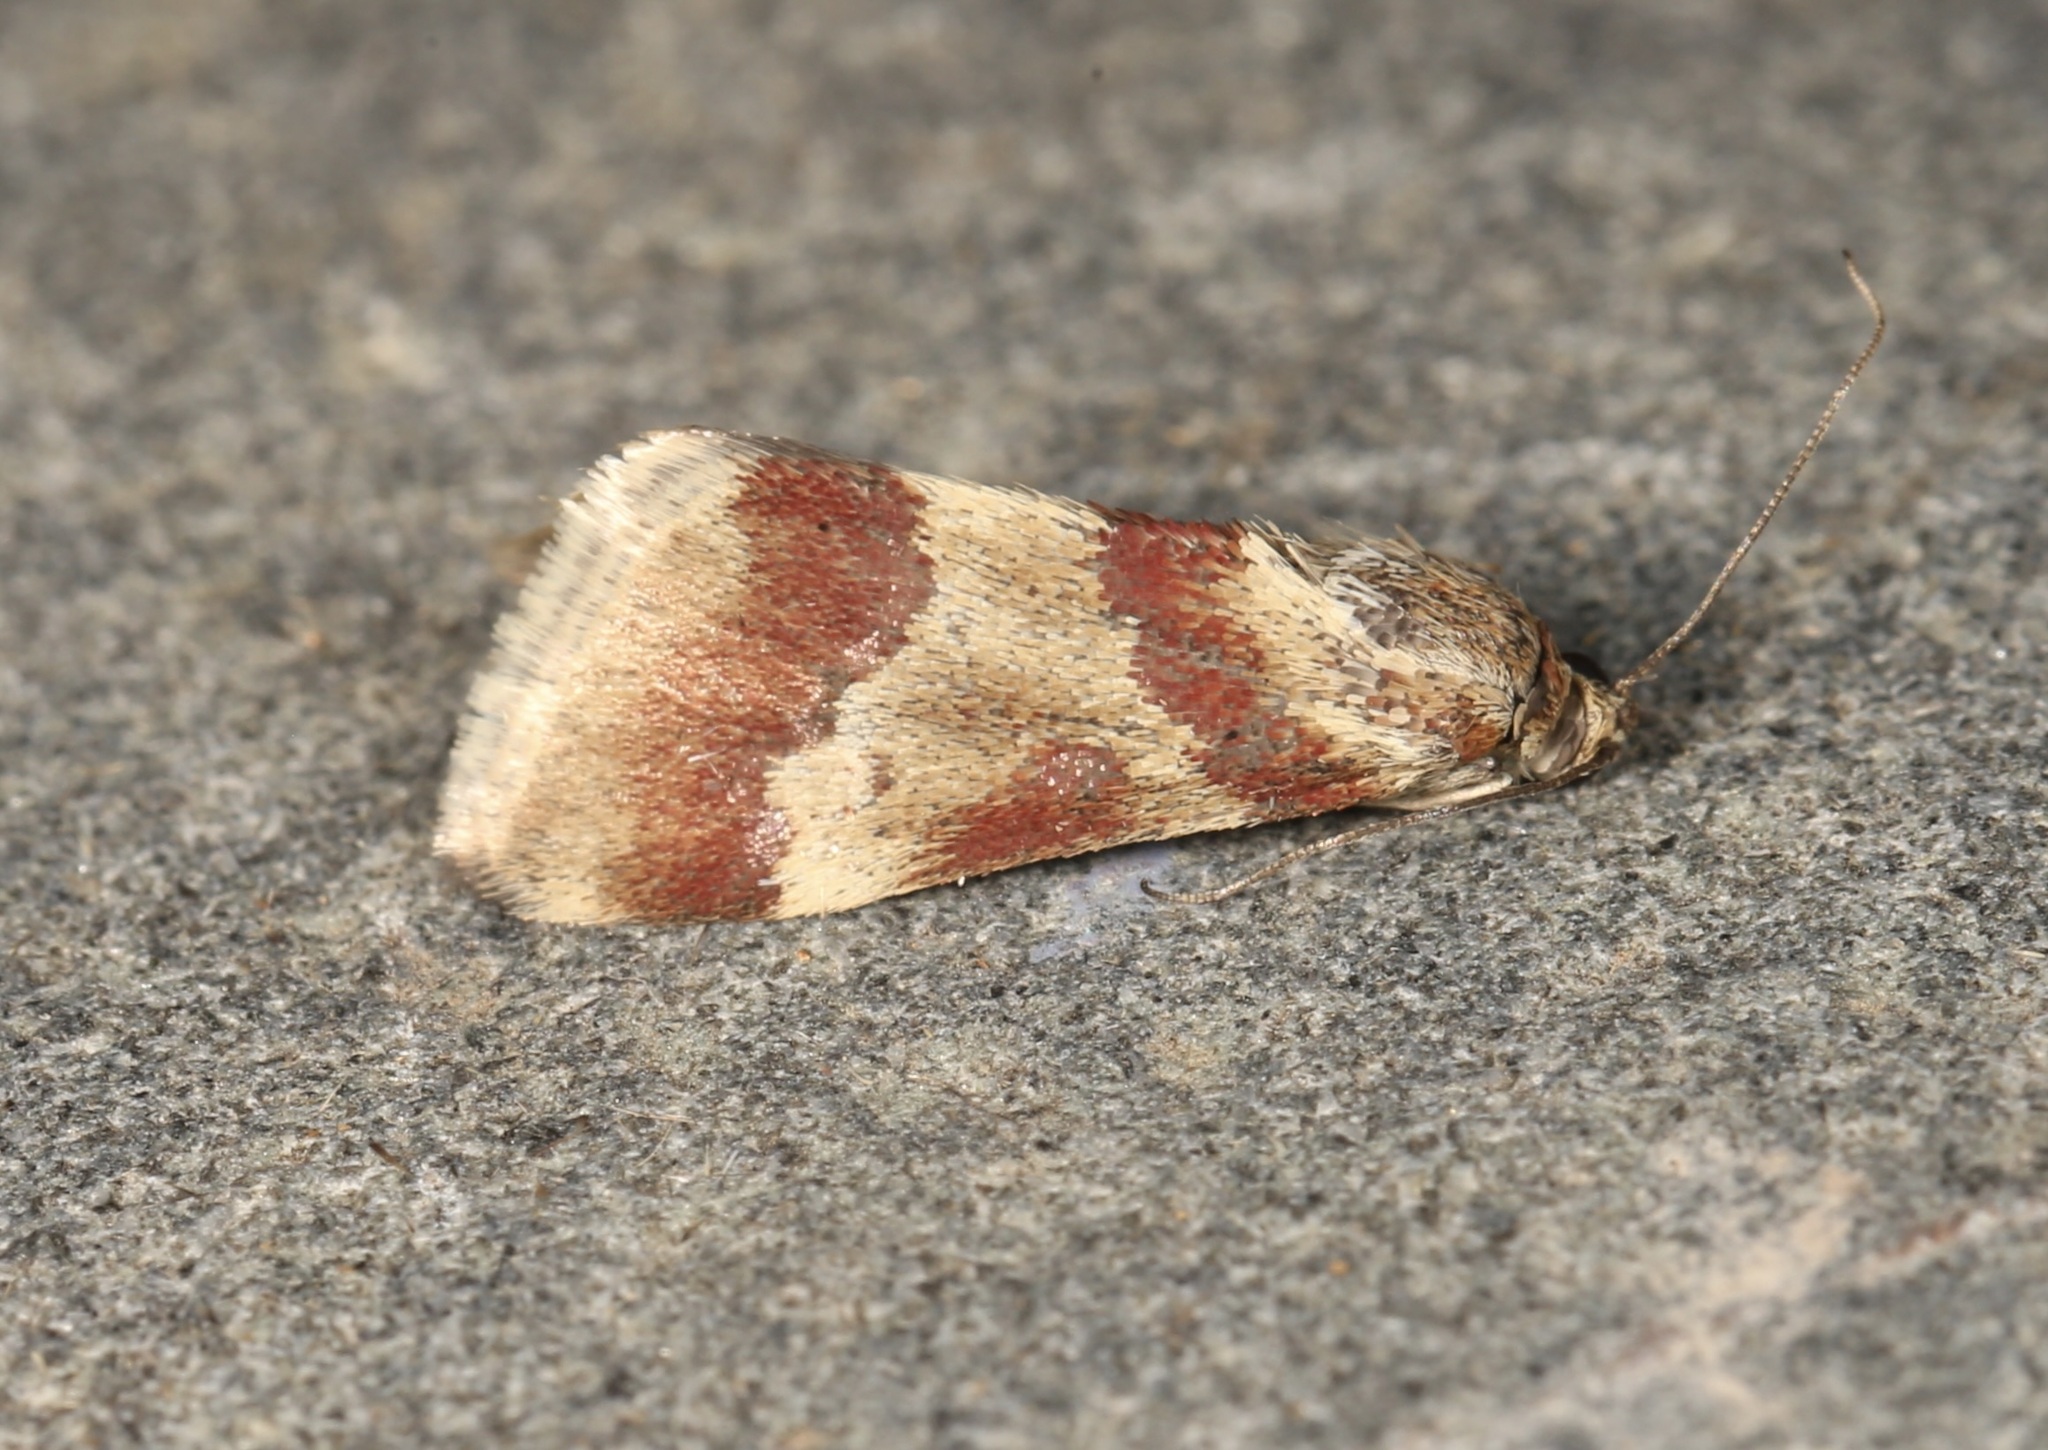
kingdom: Animalia
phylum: Arthropoda
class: Insecta
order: Lepidoptera
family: Crambidae
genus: Noctuelia
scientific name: Noctuelia Mimoschinia rufofascialis
